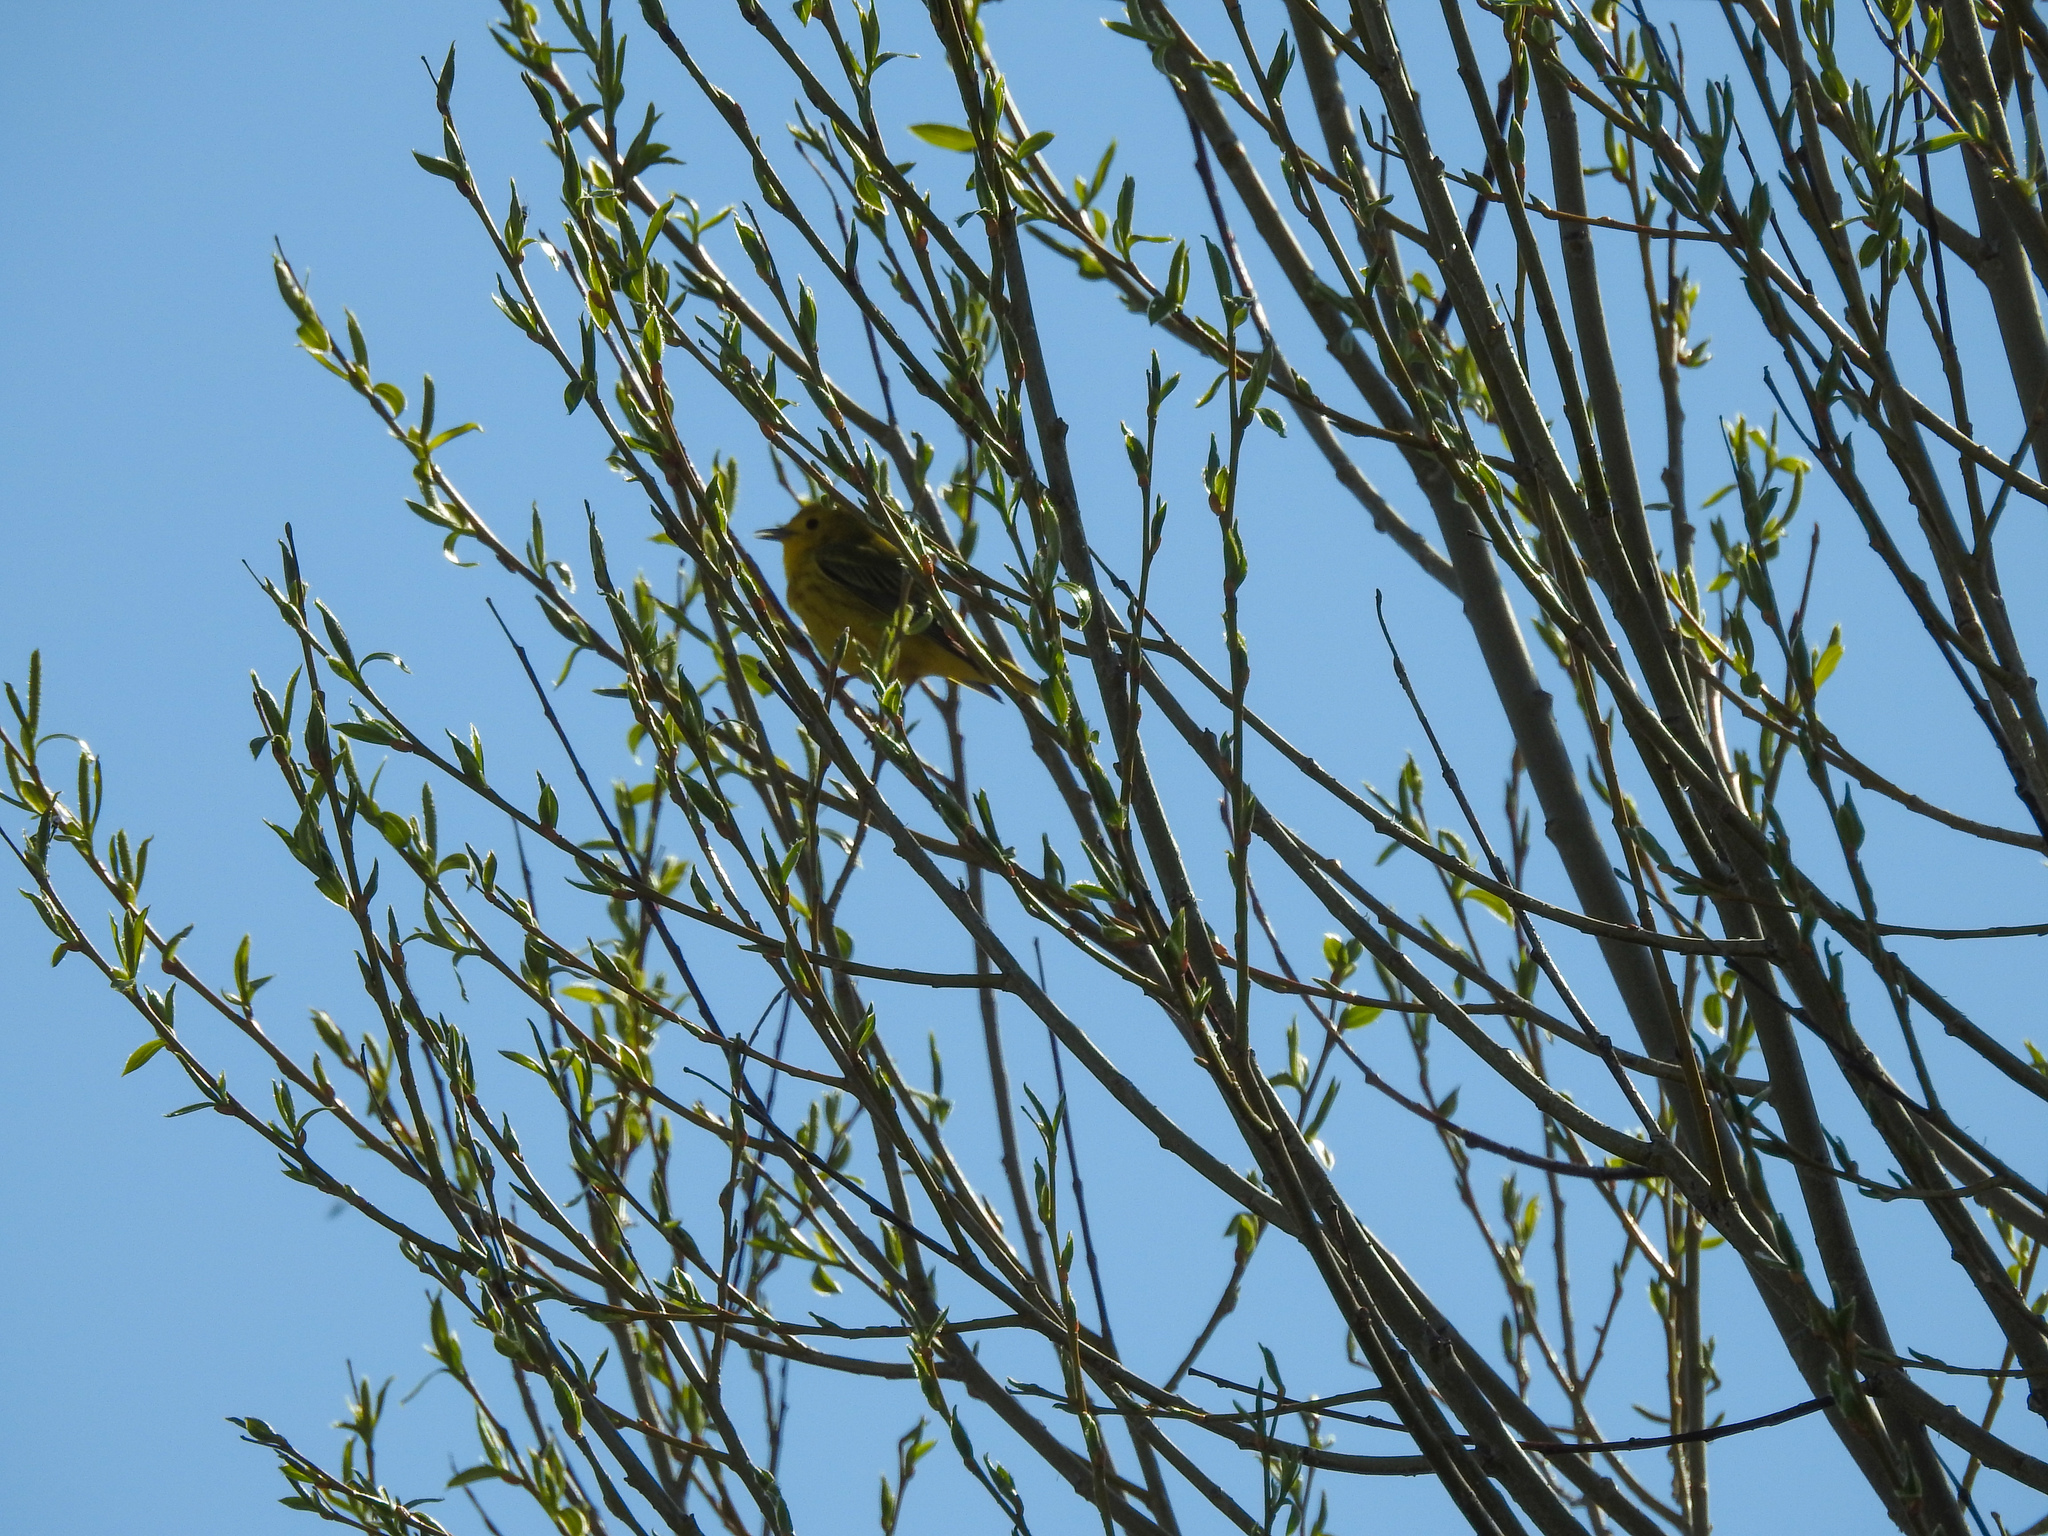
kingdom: Animalia
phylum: Chordata
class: Aves
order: Passeriformes
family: Parulidae
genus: Setophaga
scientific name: Setophaga petechia
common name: Yellow warbler
